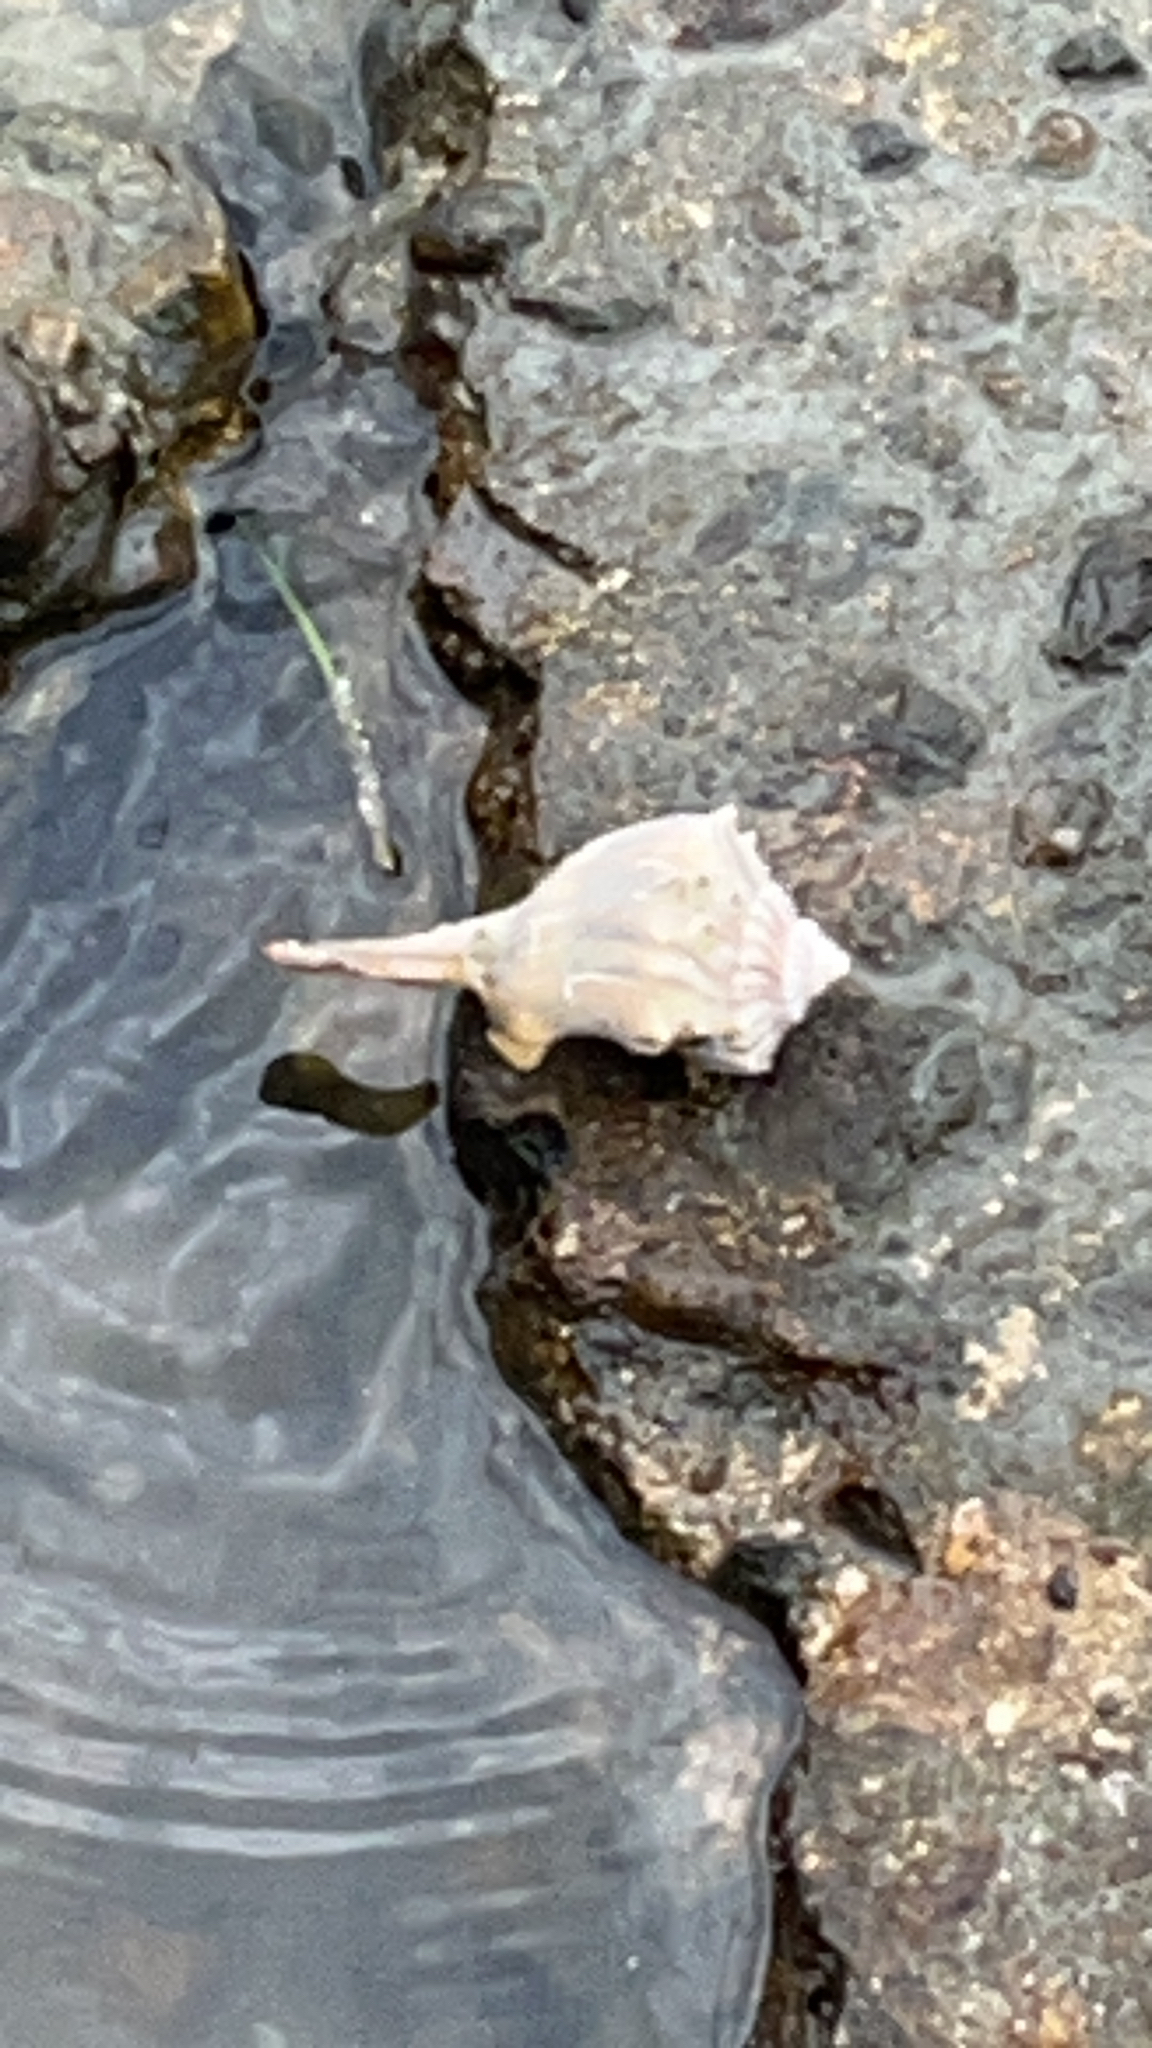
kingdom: Animalia
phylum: Mollusca
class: Gastropoda
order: Neogastropoda
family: Busyconidae
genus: Sinistrofulgur
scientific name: Sinistrofulgur pulleyi
